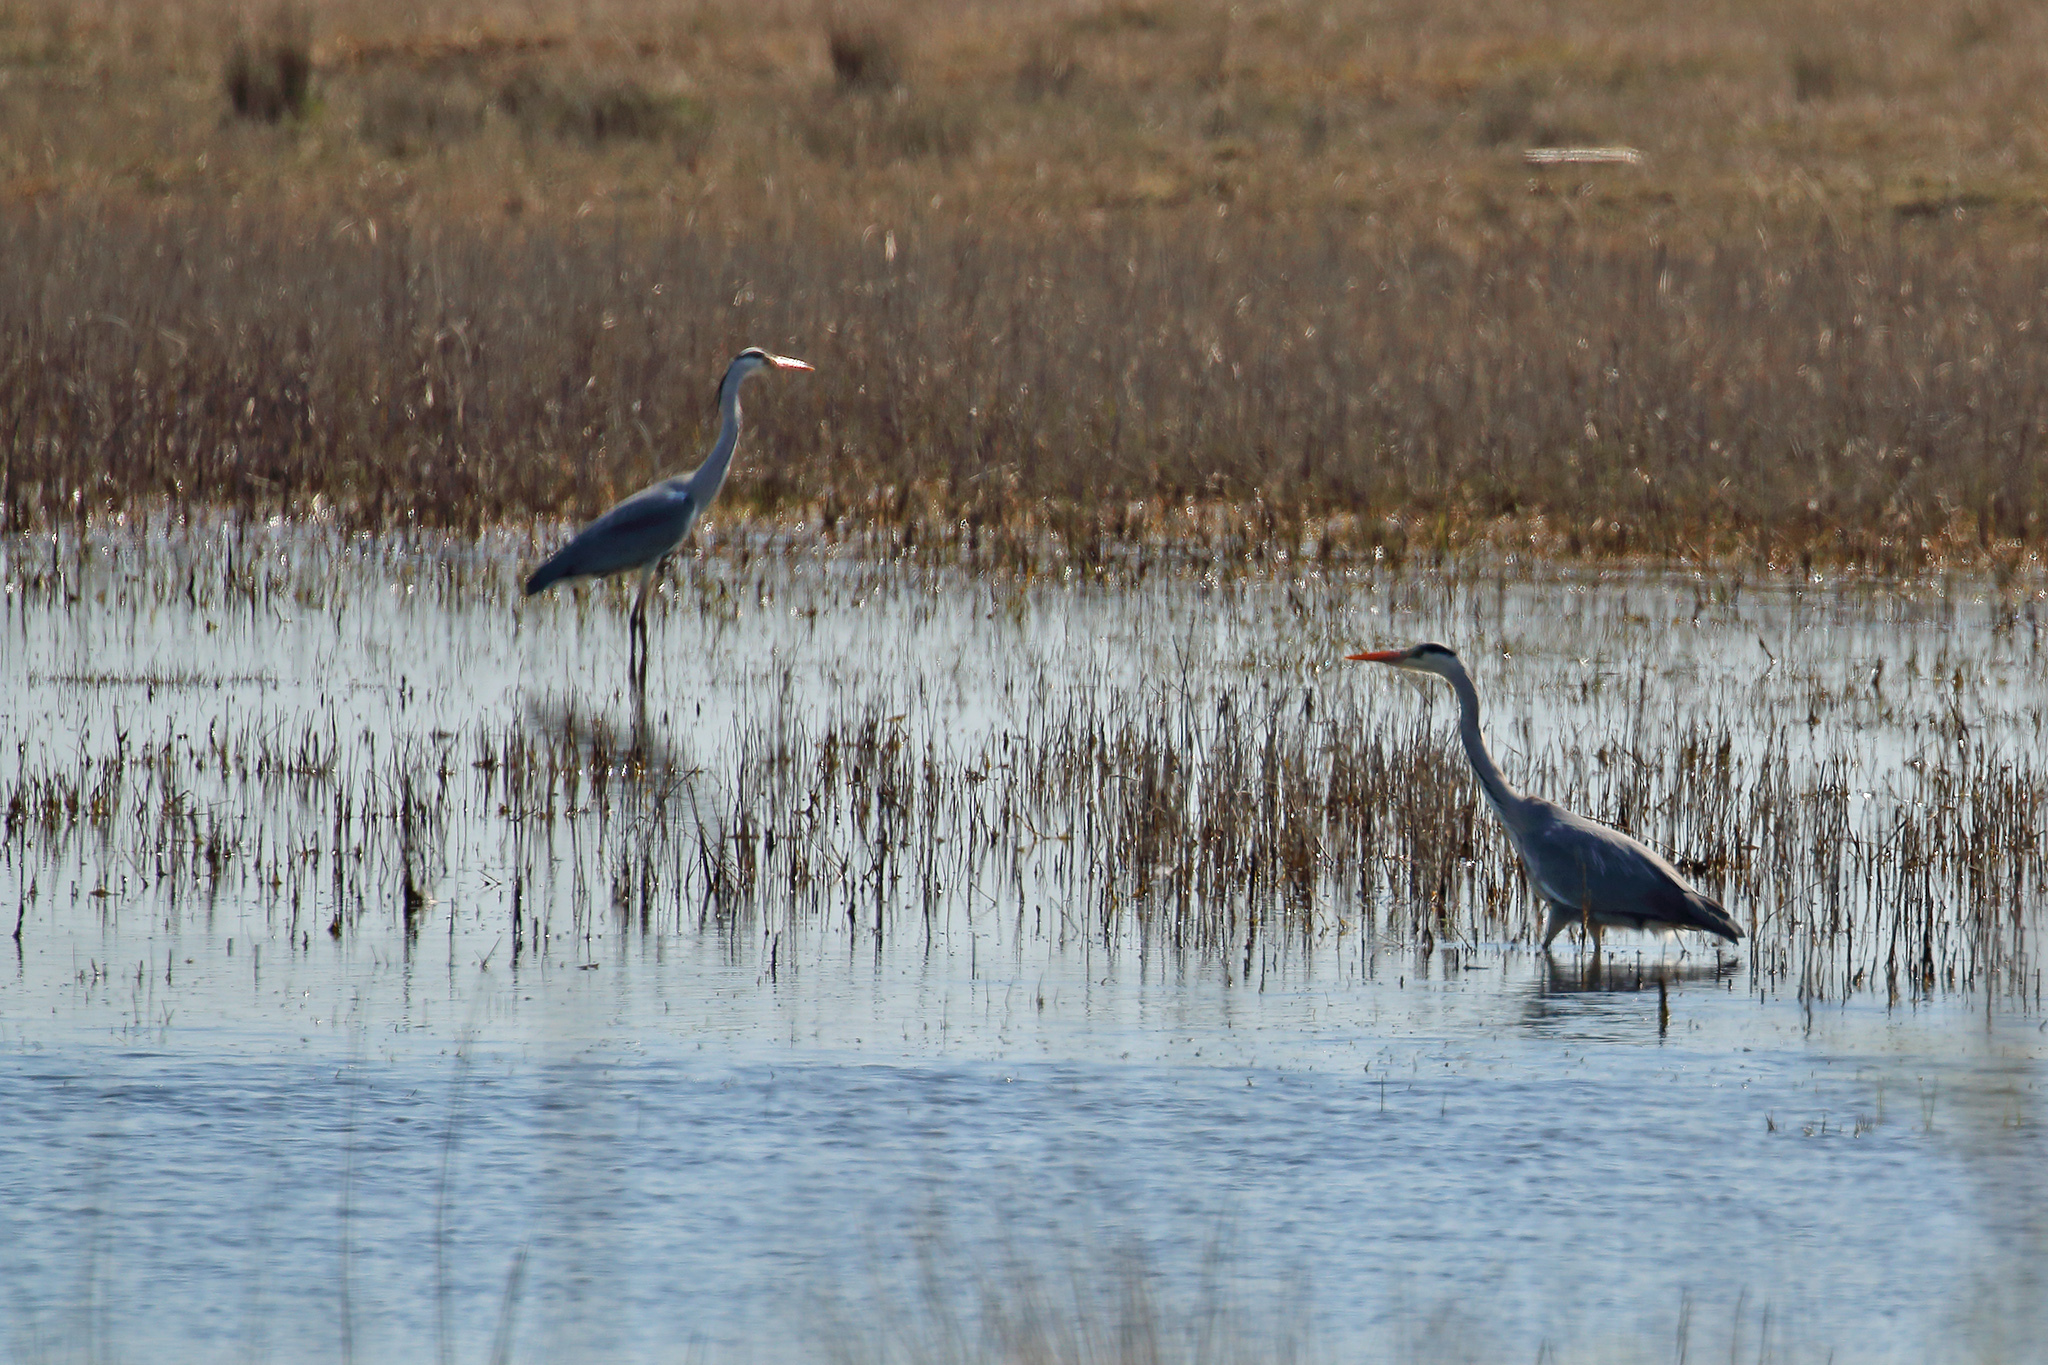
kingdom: Animalia
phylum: Chordata
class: Aves
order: Pelecaniformes
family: Ardeidae
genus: Ardea
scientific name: Ardea cinerea
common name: Grey heron
